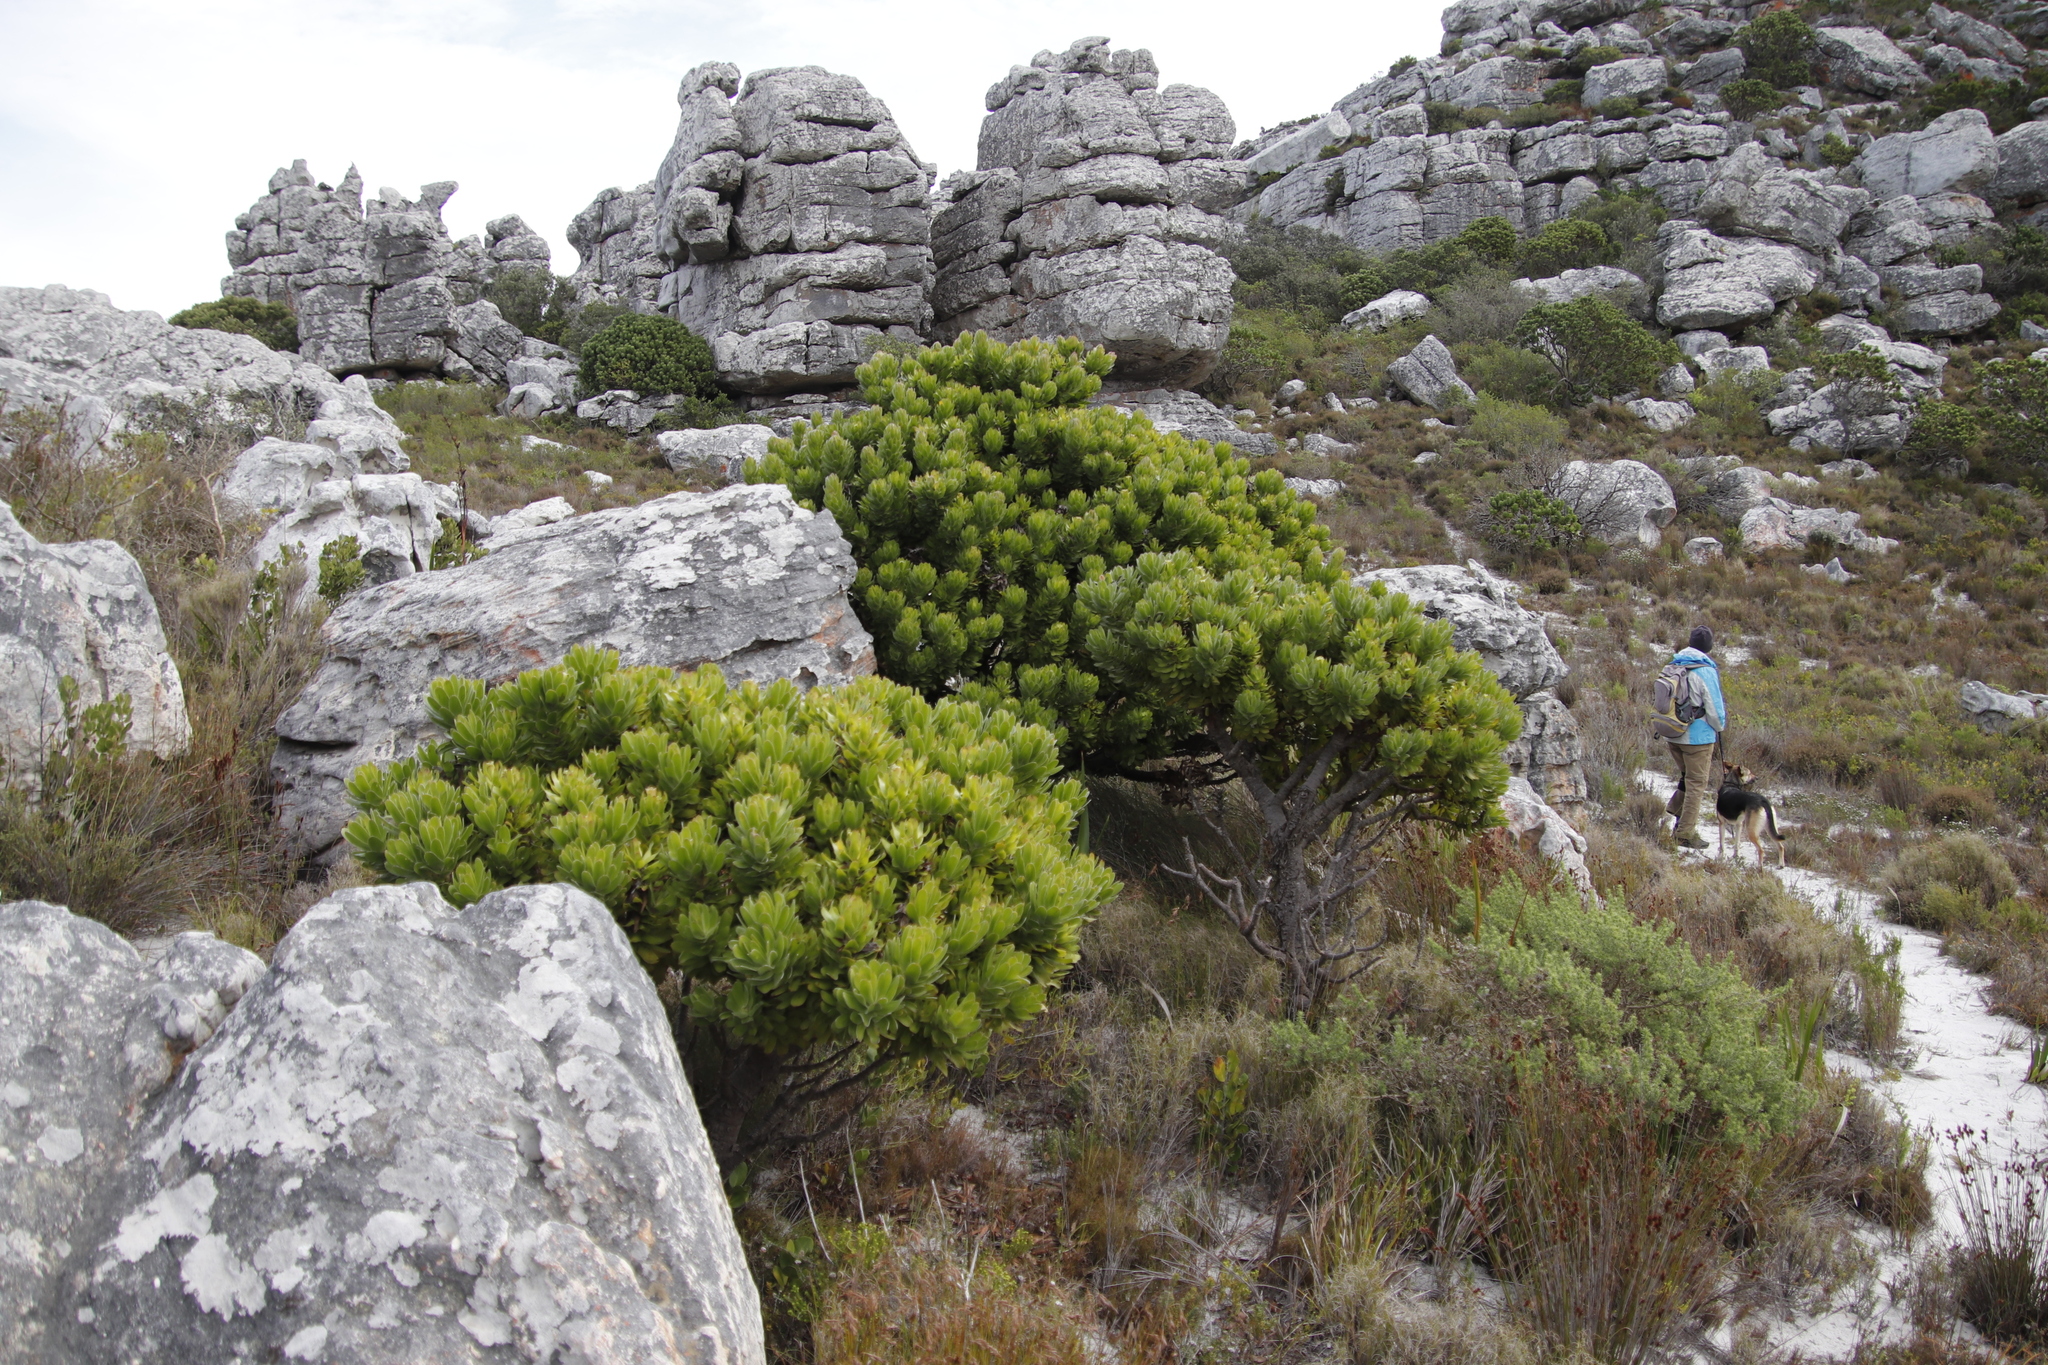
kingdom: Plantae
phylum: Tracheophyta
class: Magnoliopsida
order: Proteales
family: Proteaceae
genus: Leucospermum
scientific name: Leucospermum conocarpodendron
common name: Tree pincushion
